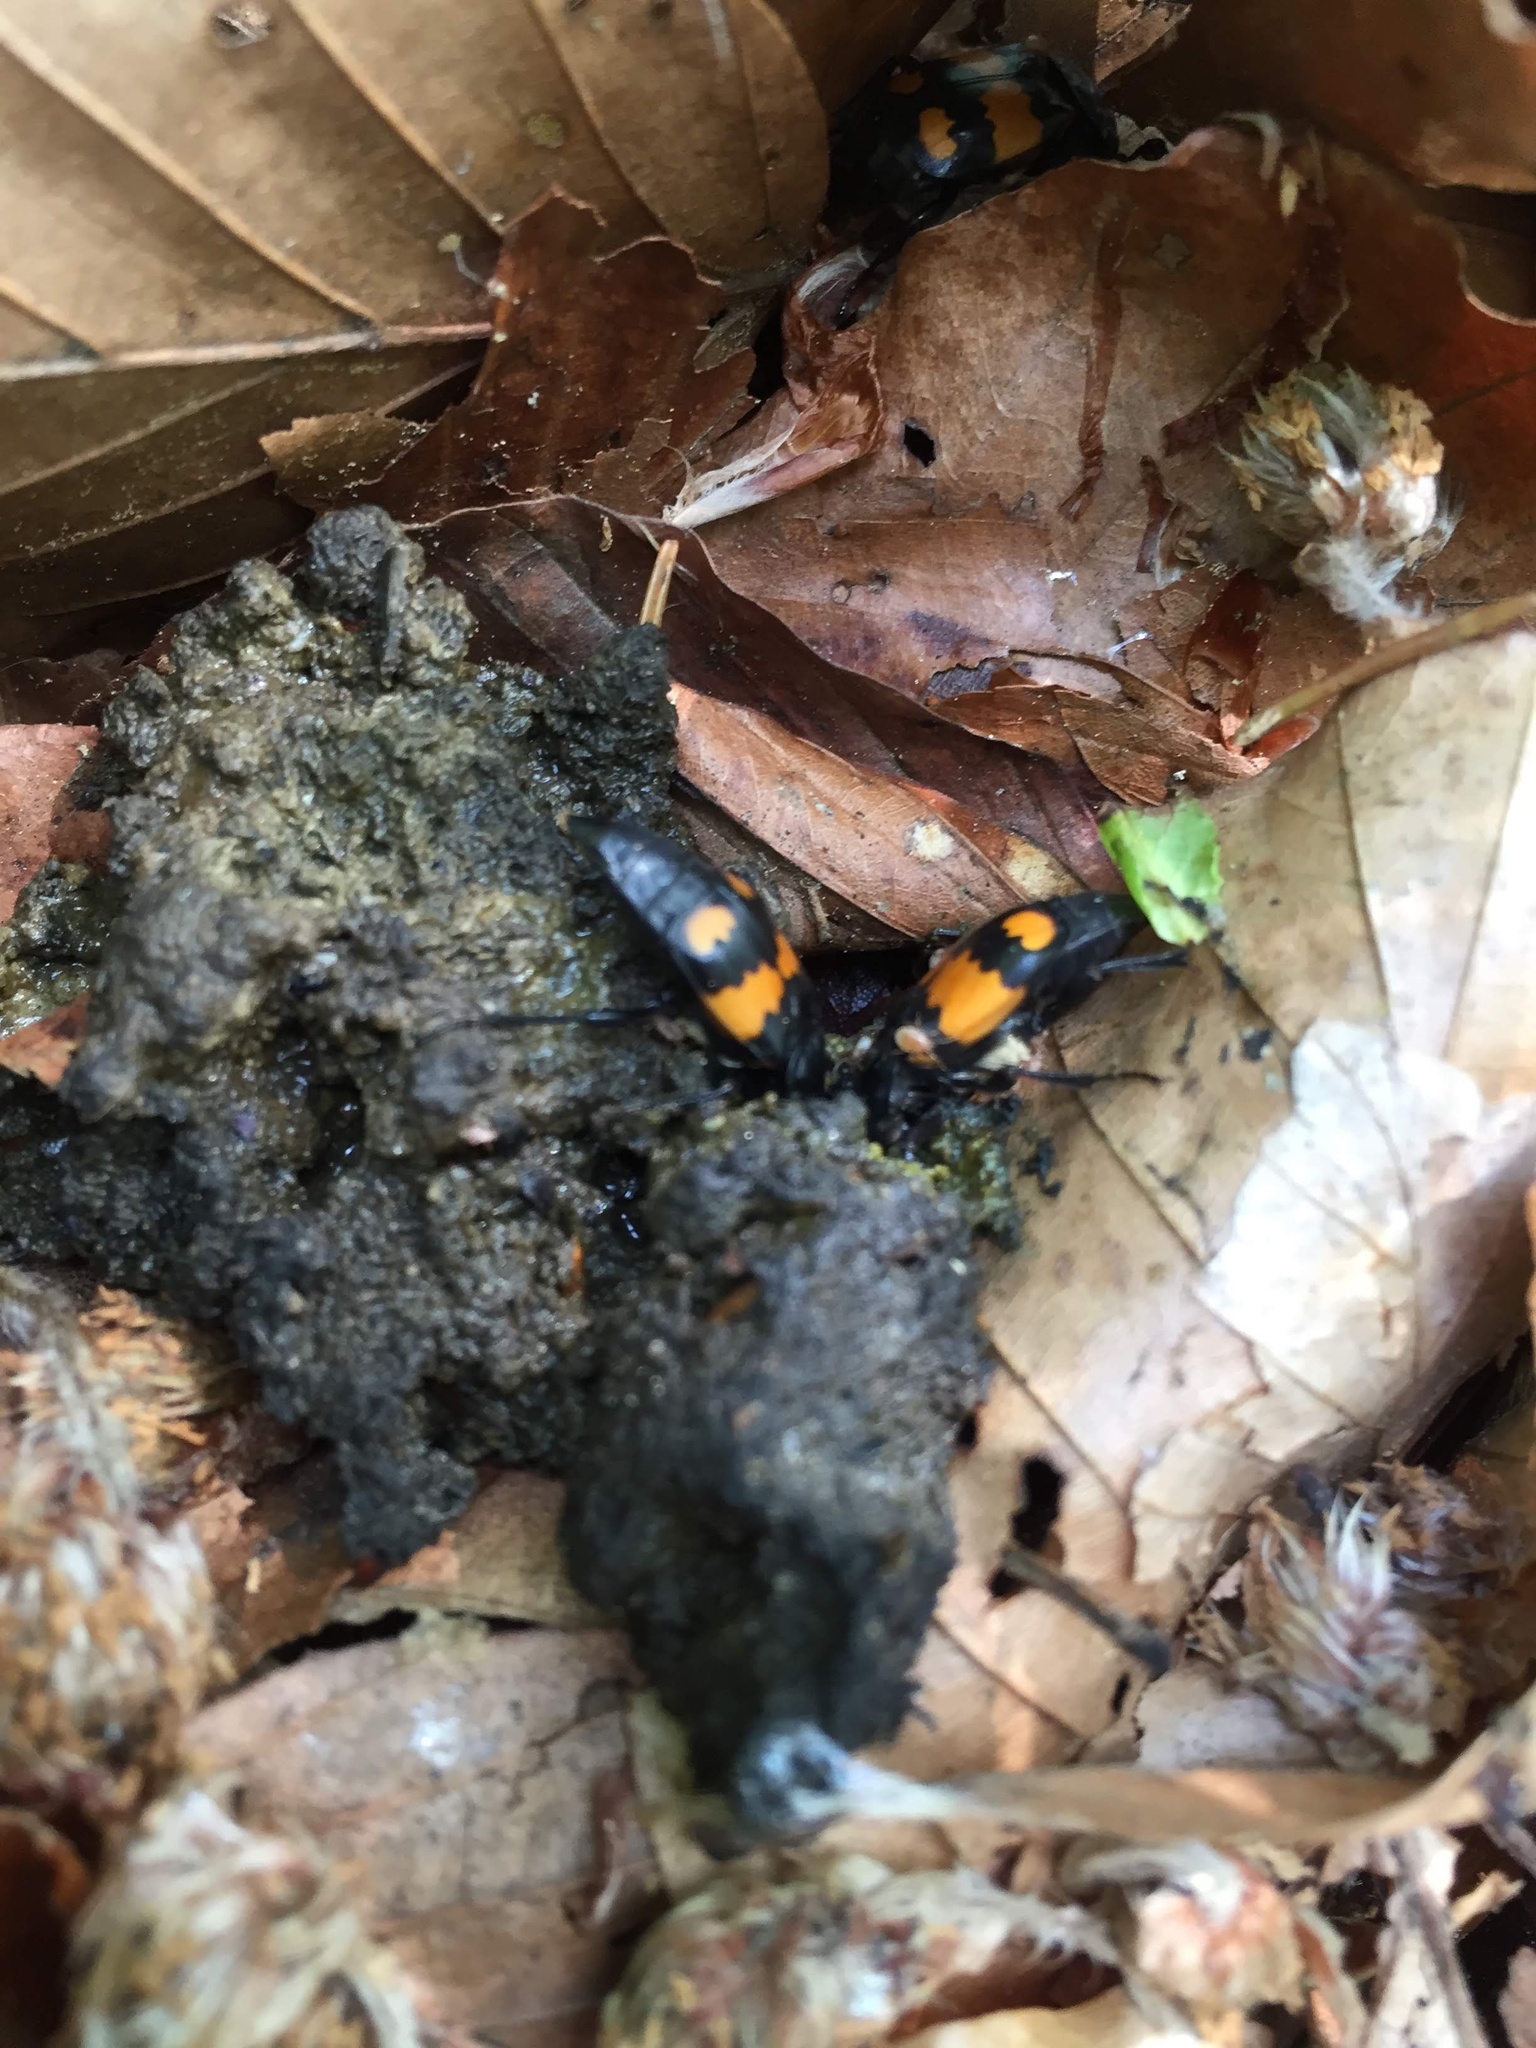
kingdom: Animalia
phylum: Arthropoda
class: Insecta
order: Coleoptera
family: Staphylinidae
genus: Nicrophorus
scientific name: Nicrophorus vespilloides
